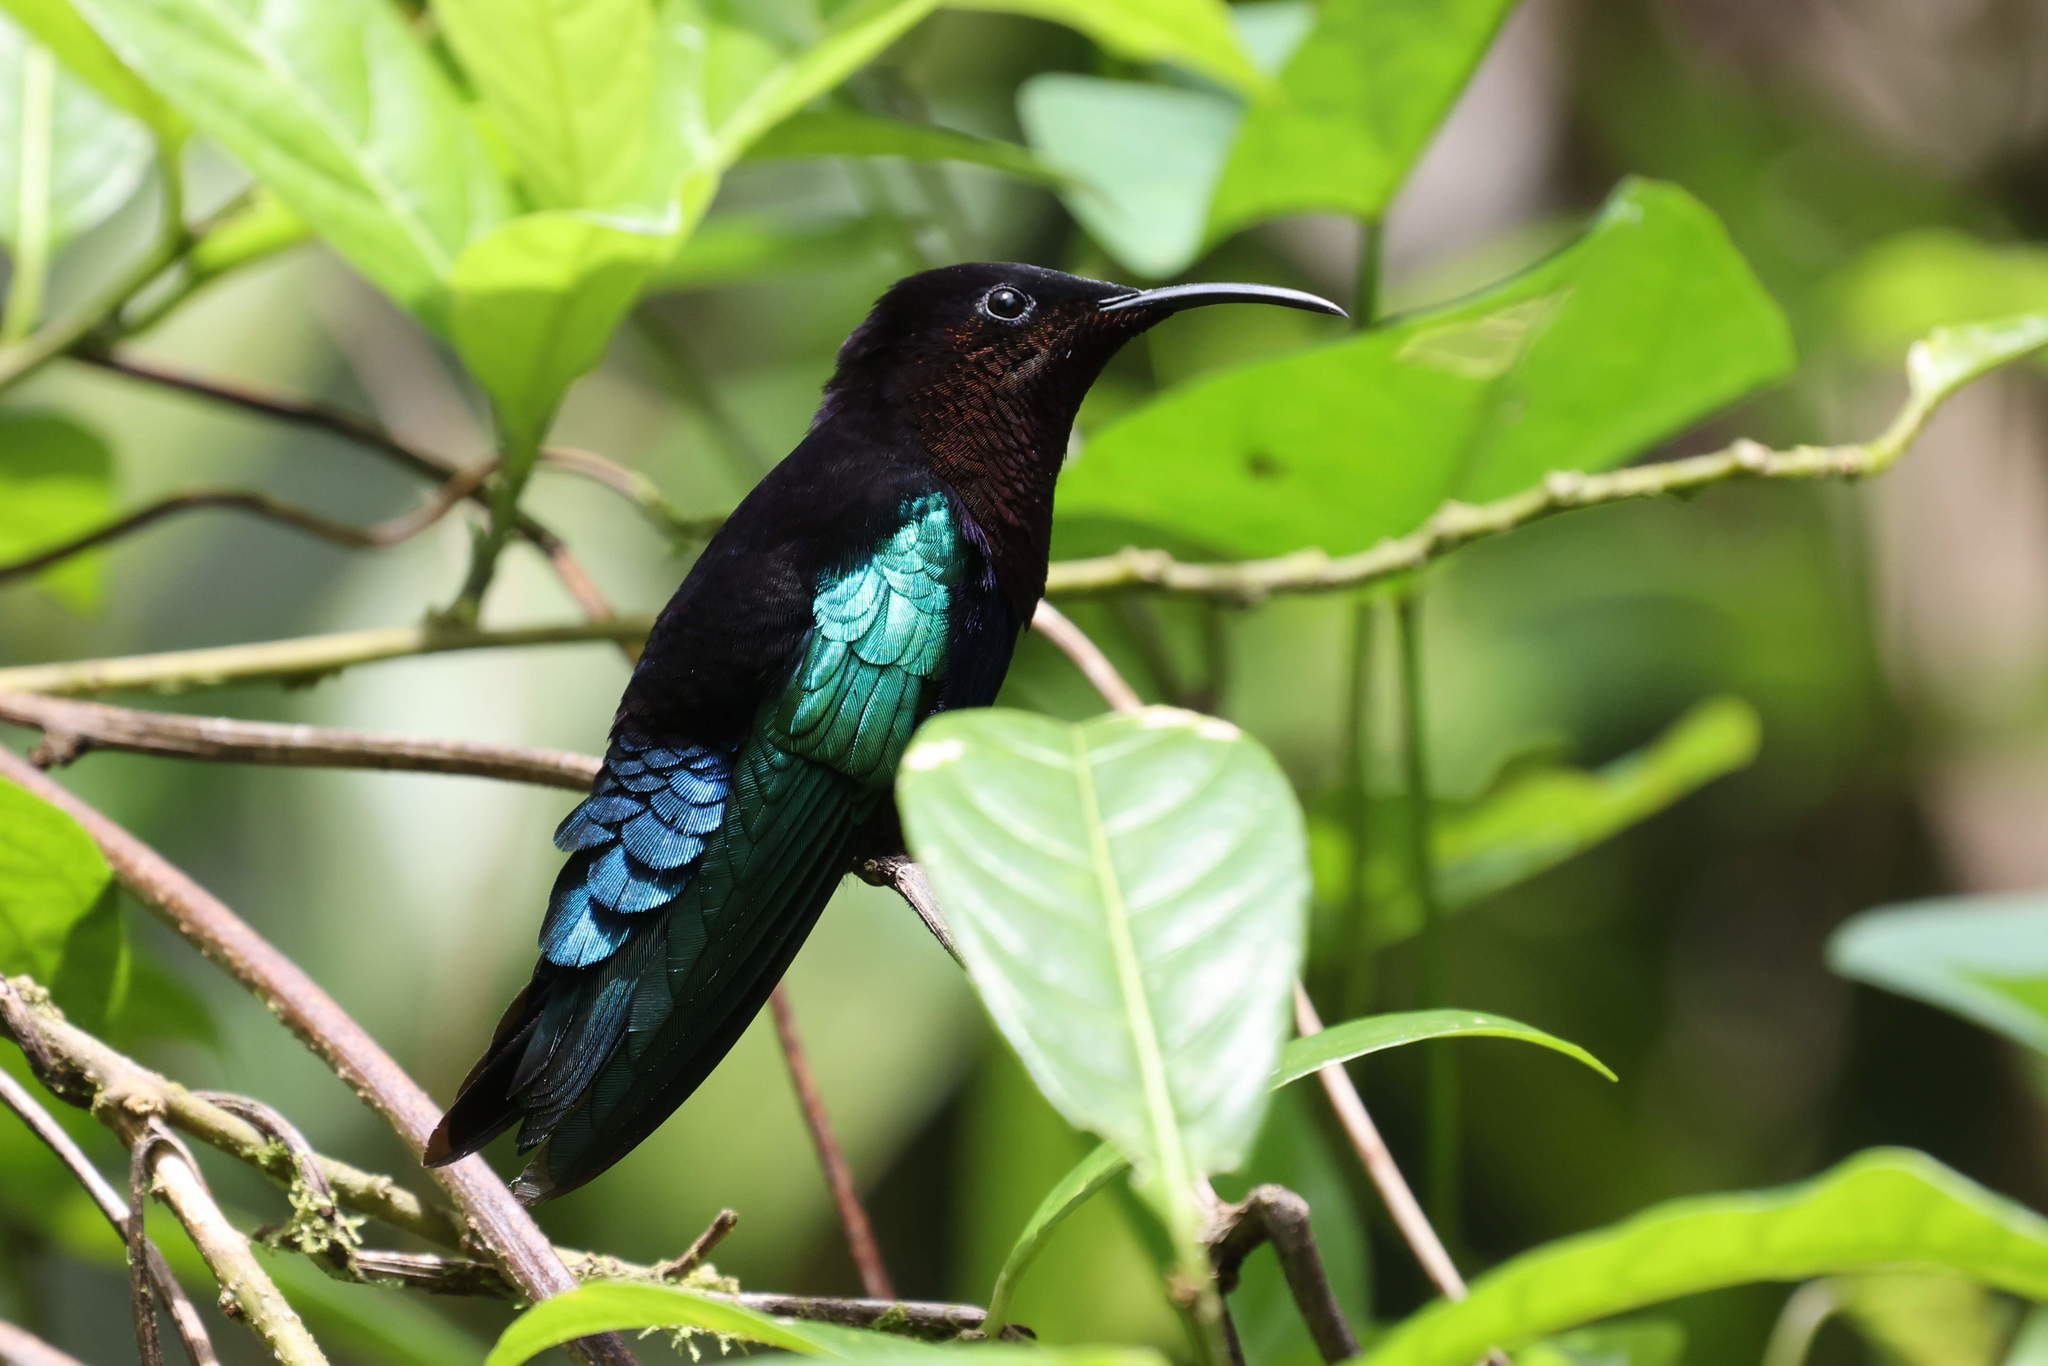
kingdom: Animalia
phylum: Chordata
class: Aves
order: Apodiformes
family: Trochilidae
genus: Eulampis
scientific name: Eulampis jugularis
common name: Purple-throated carib
